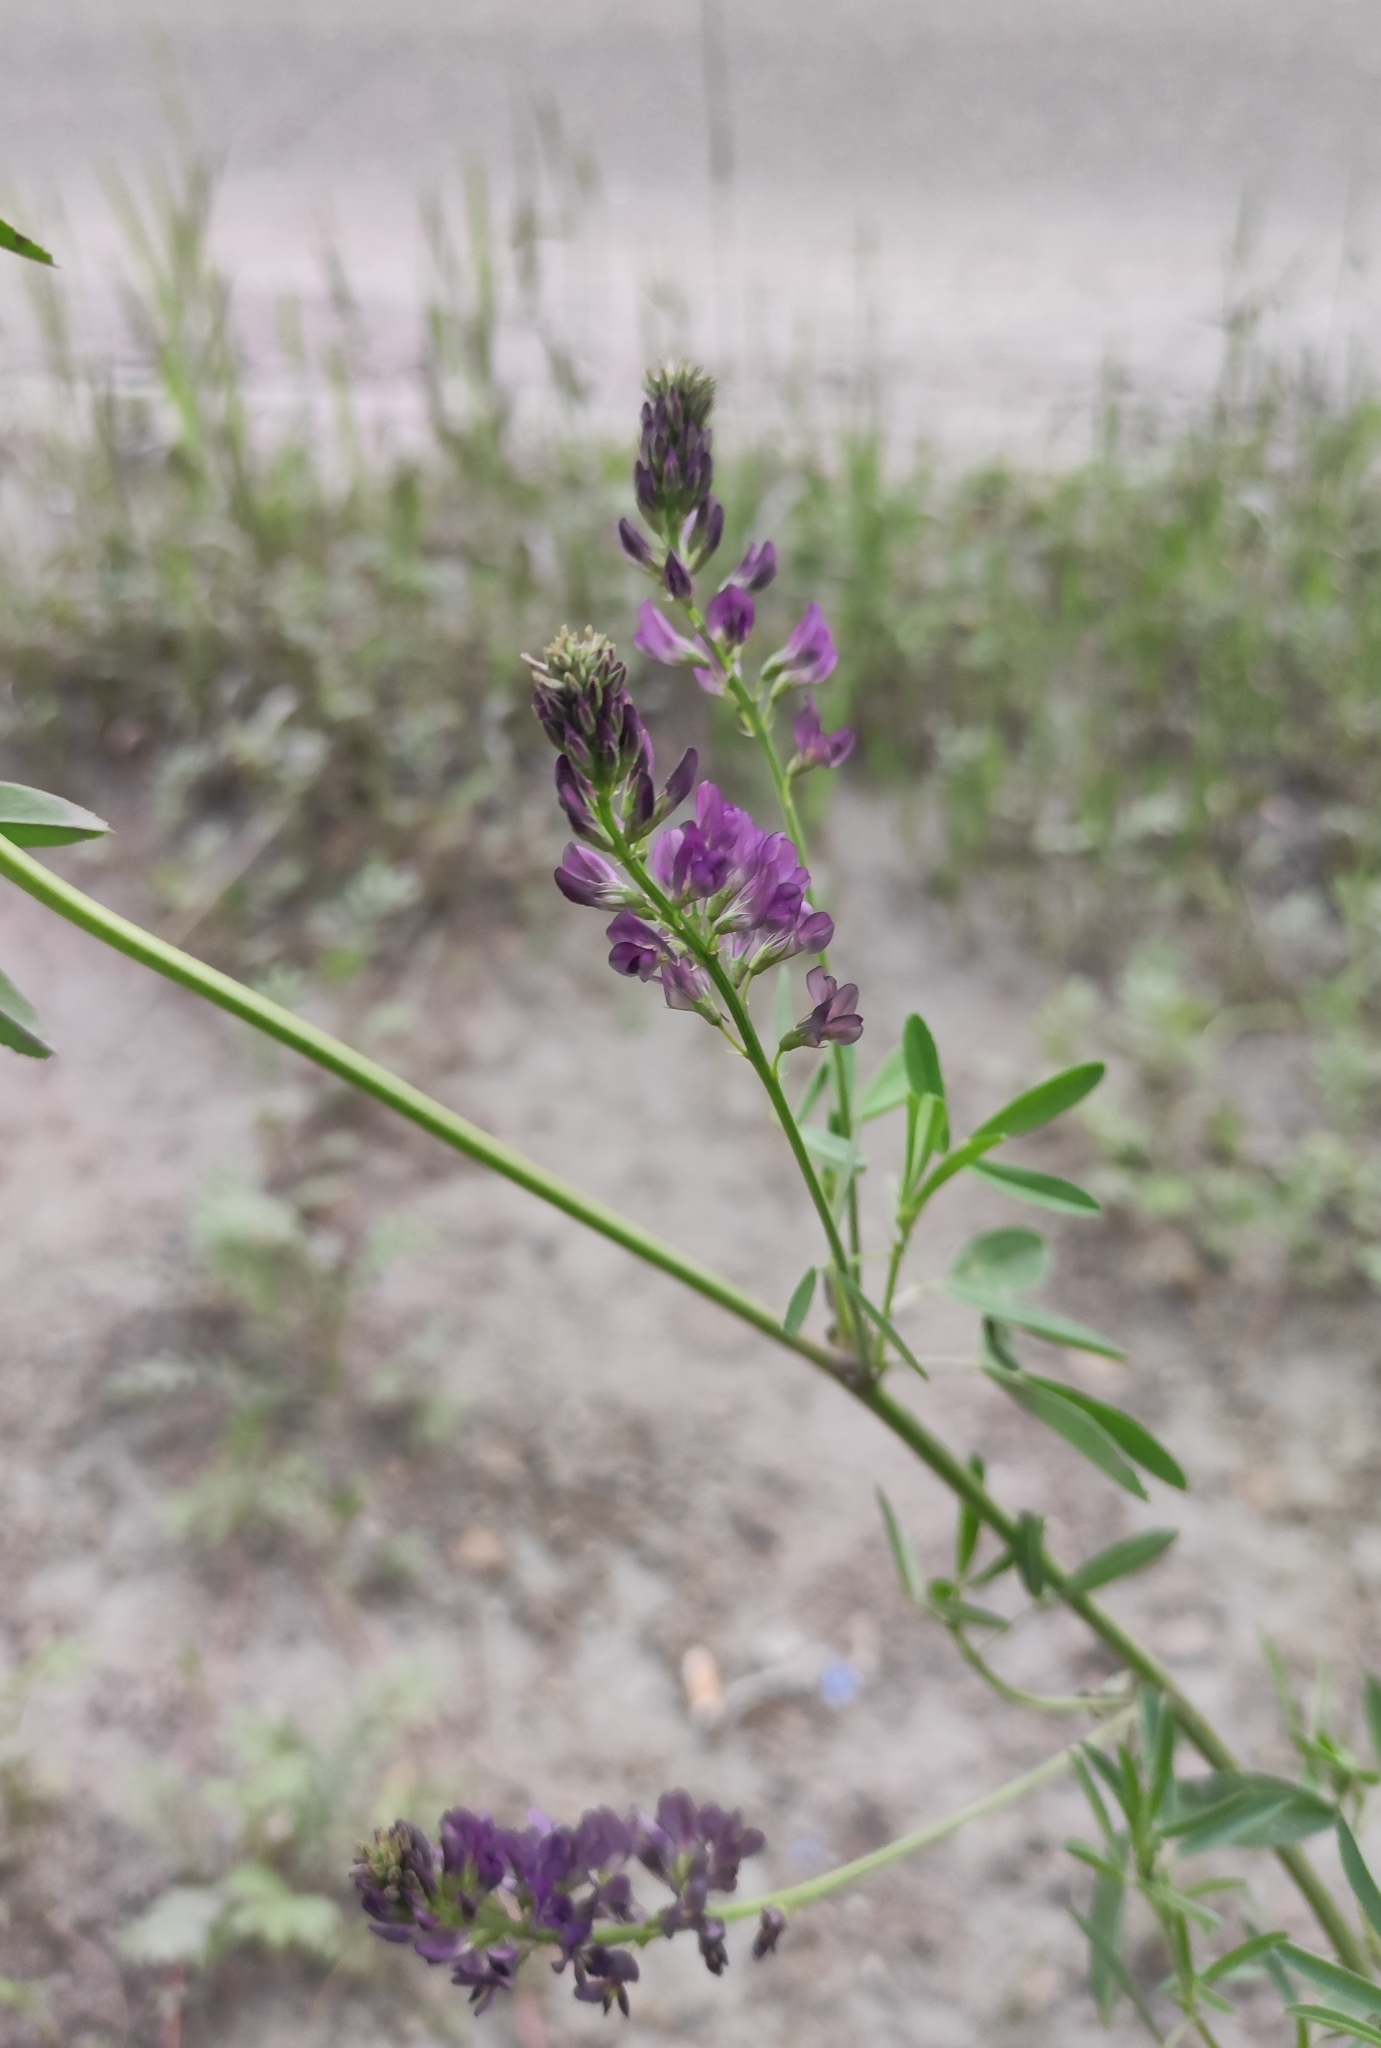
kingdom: Plantae
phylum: Tracheophyta
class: Magnoliopsida
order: Fabales
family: Fabaceae
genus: Medicago
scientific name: Medicago varia
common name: Sand lucerne
